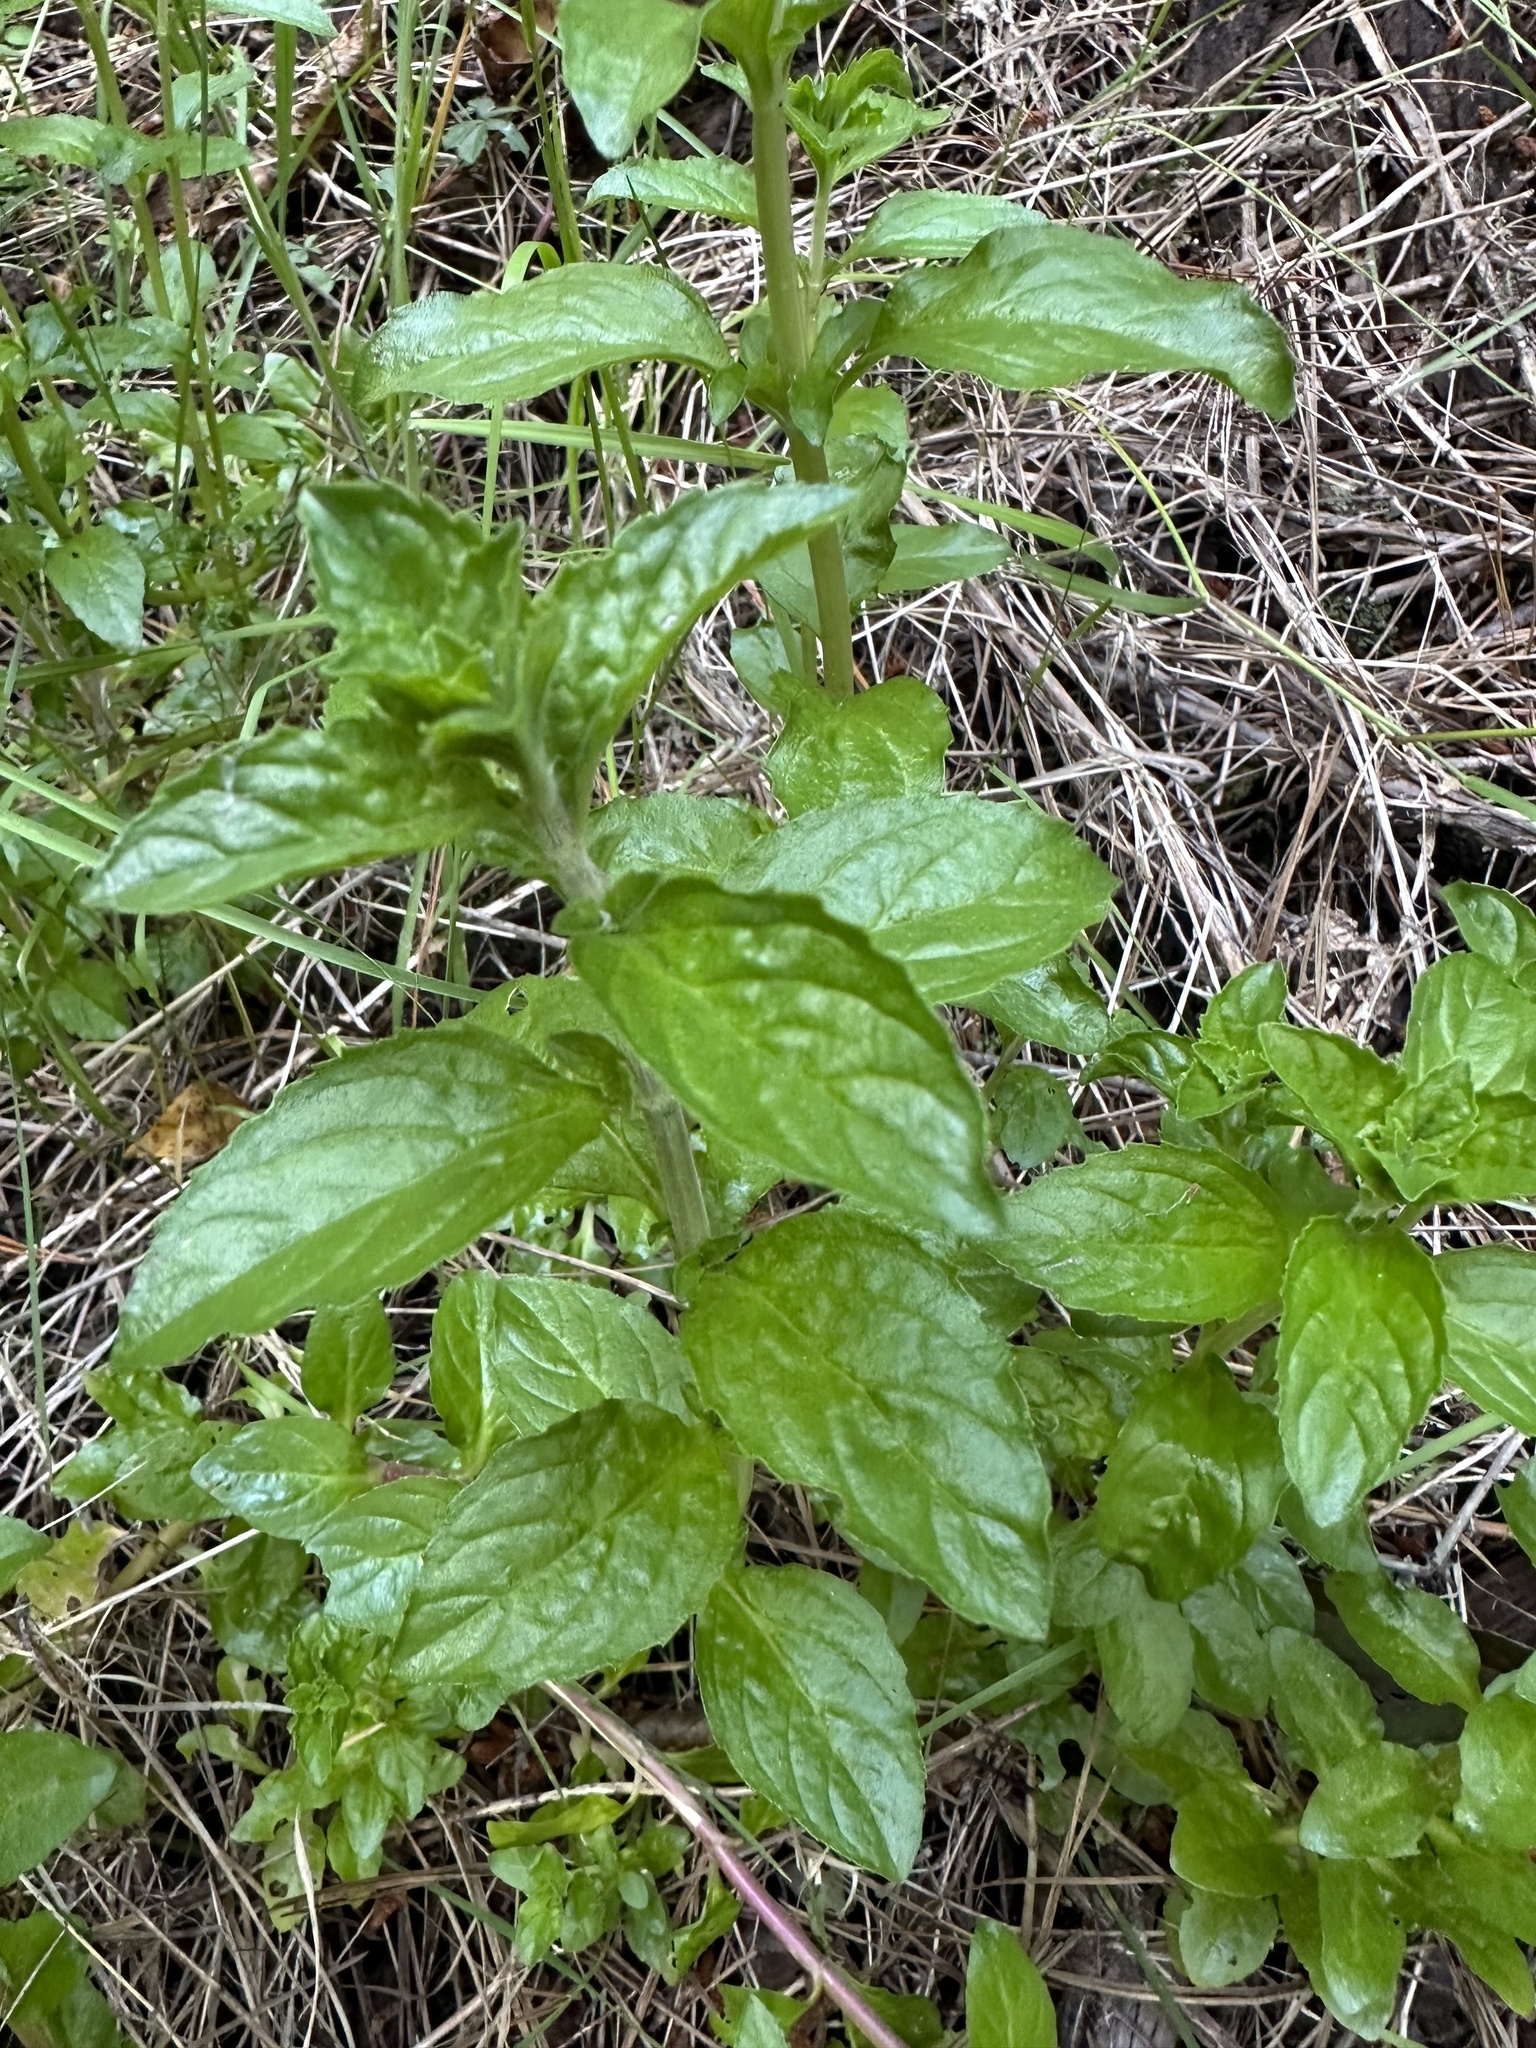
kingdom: Plantae
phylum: Tracheophyta
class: Magnoliopsida
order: Lamiales
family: Lamiaceae
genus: Mentha
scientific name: Mentha pulegium
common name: Pennyroyal
